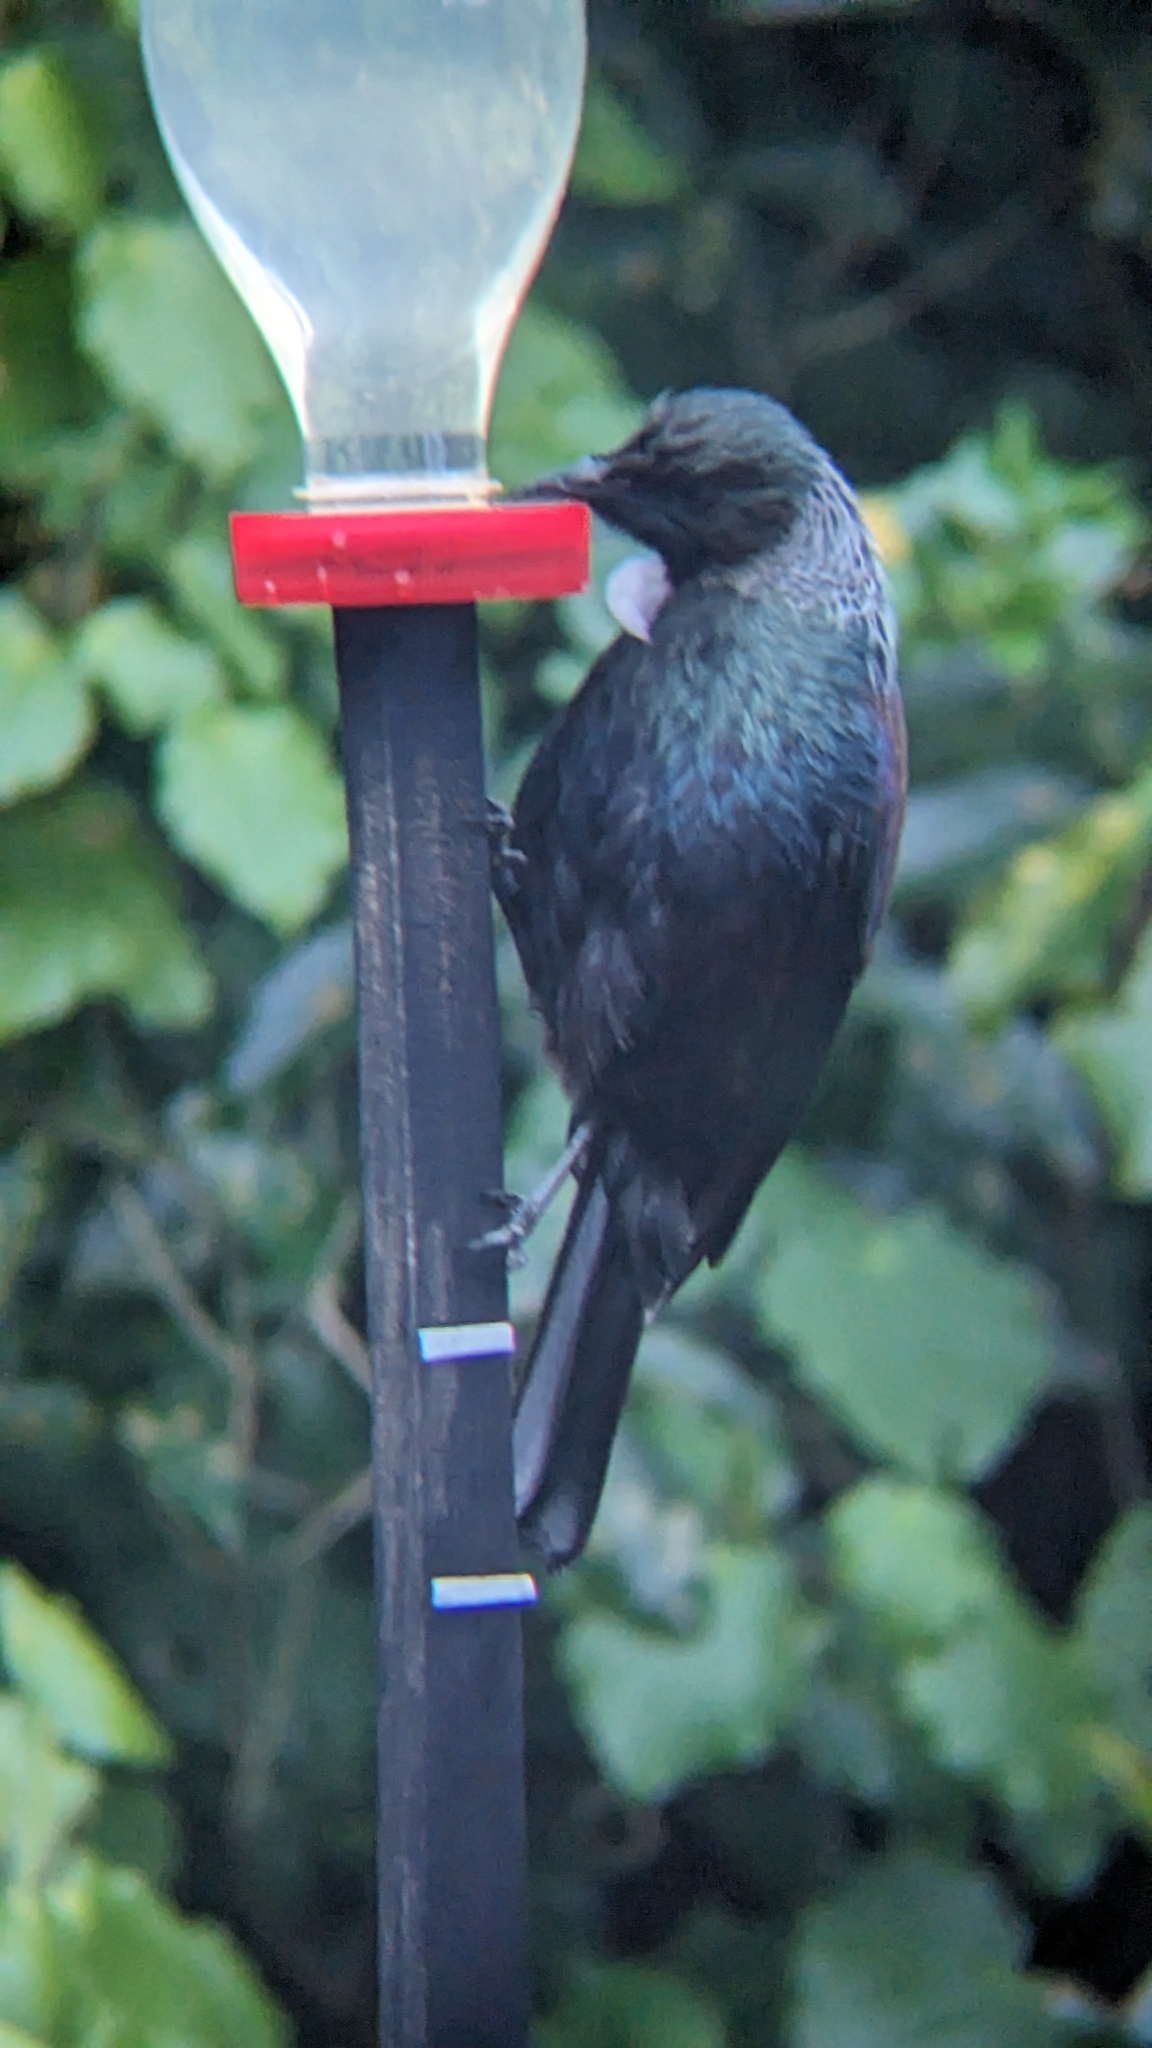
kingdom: Animalia
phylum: Chordata
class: Aves
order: Passeriformes
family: Meliphagidae
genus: Prosthemadera
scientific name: Prosthemadera novaeseelandiae
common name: Tui
